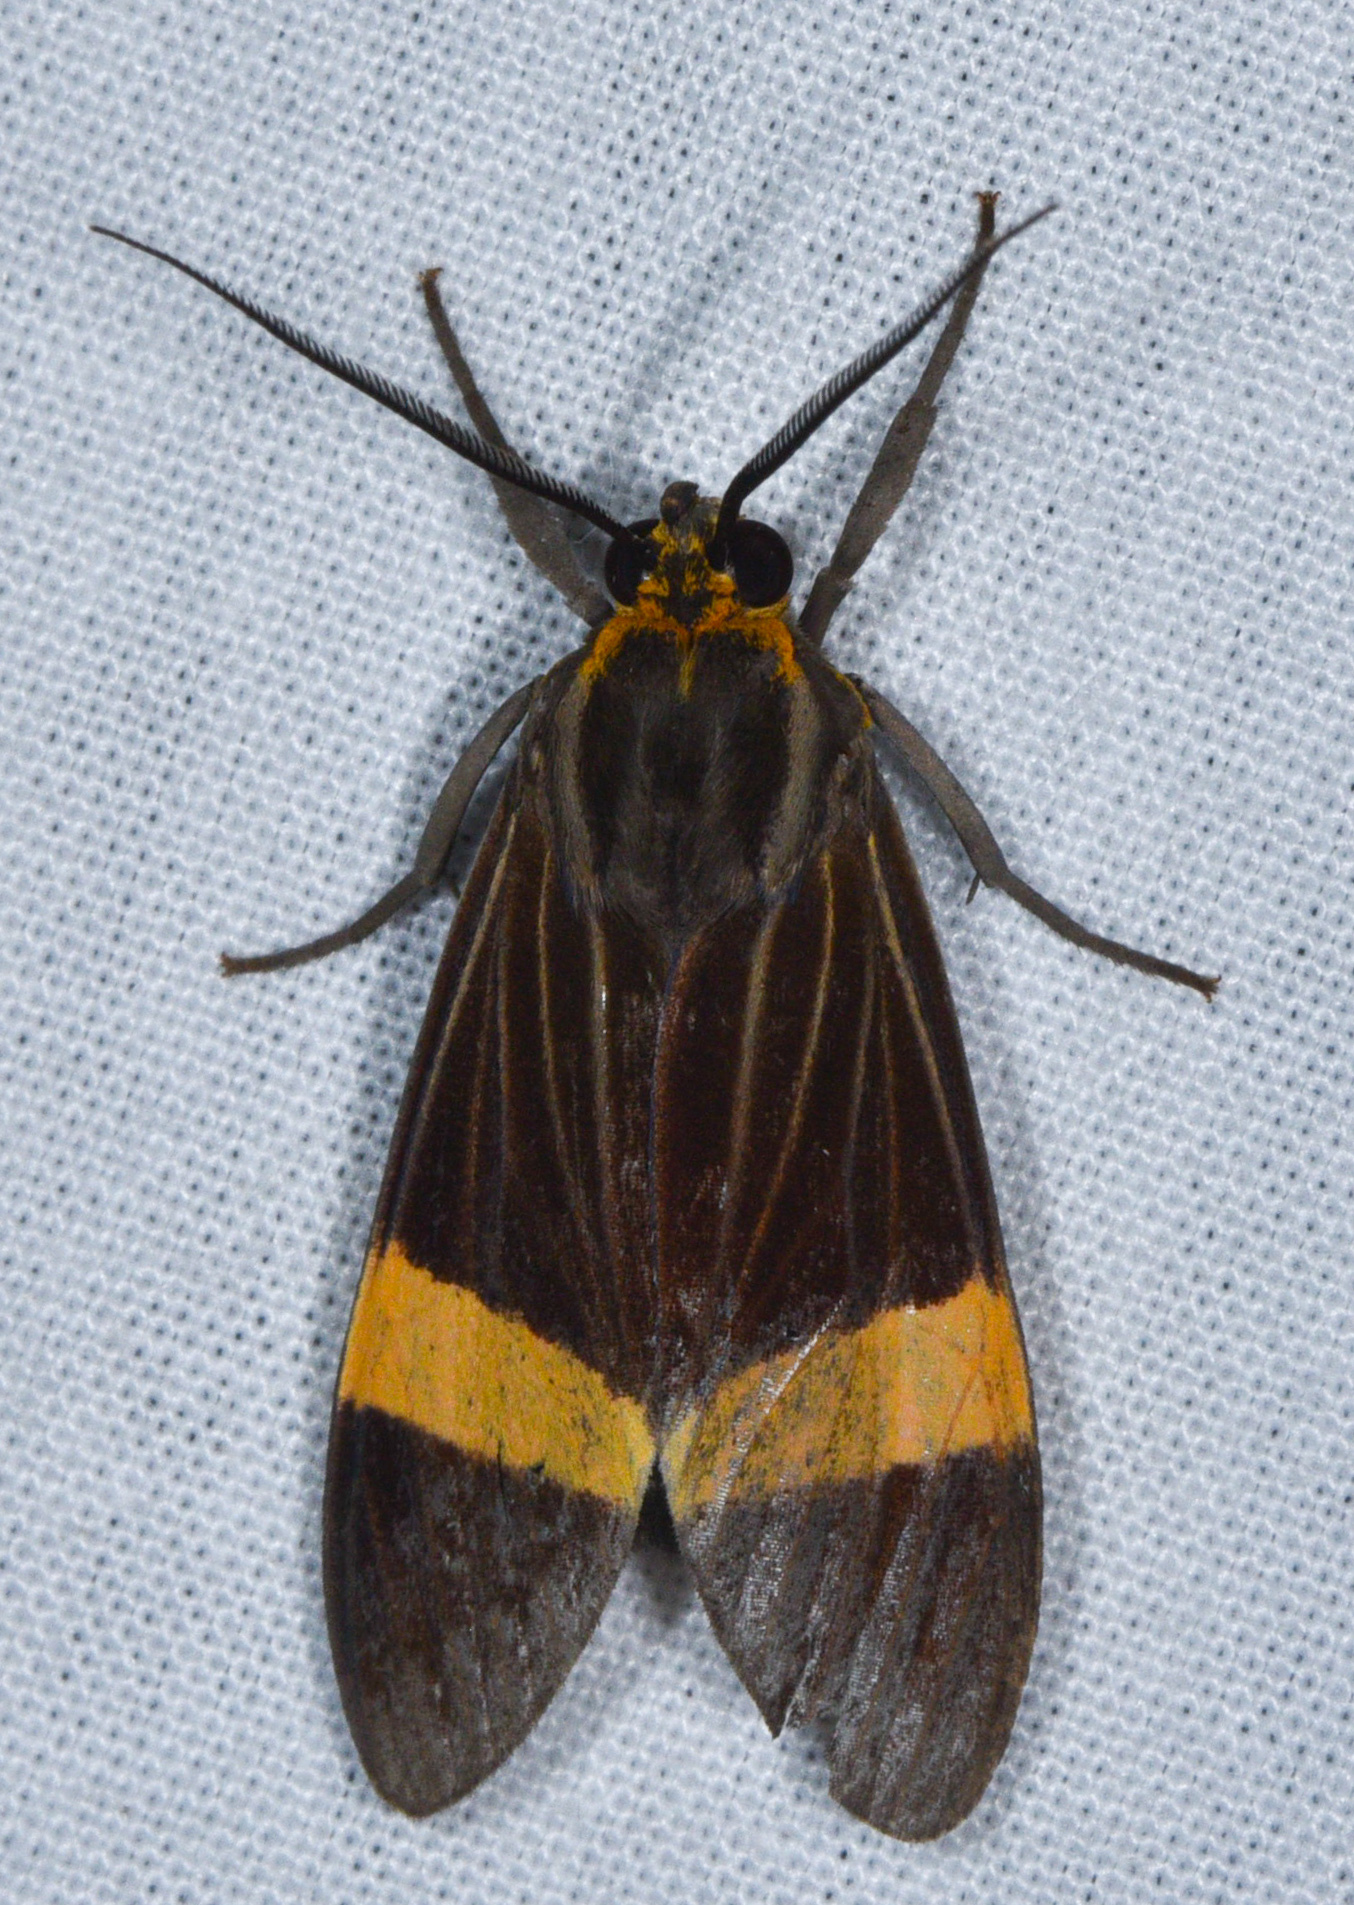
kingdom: Animalia
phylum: Arthropoda
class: Insecta
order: Lepidoptera
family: Erebidae
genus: Aclytia
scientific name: Aclytia heber
